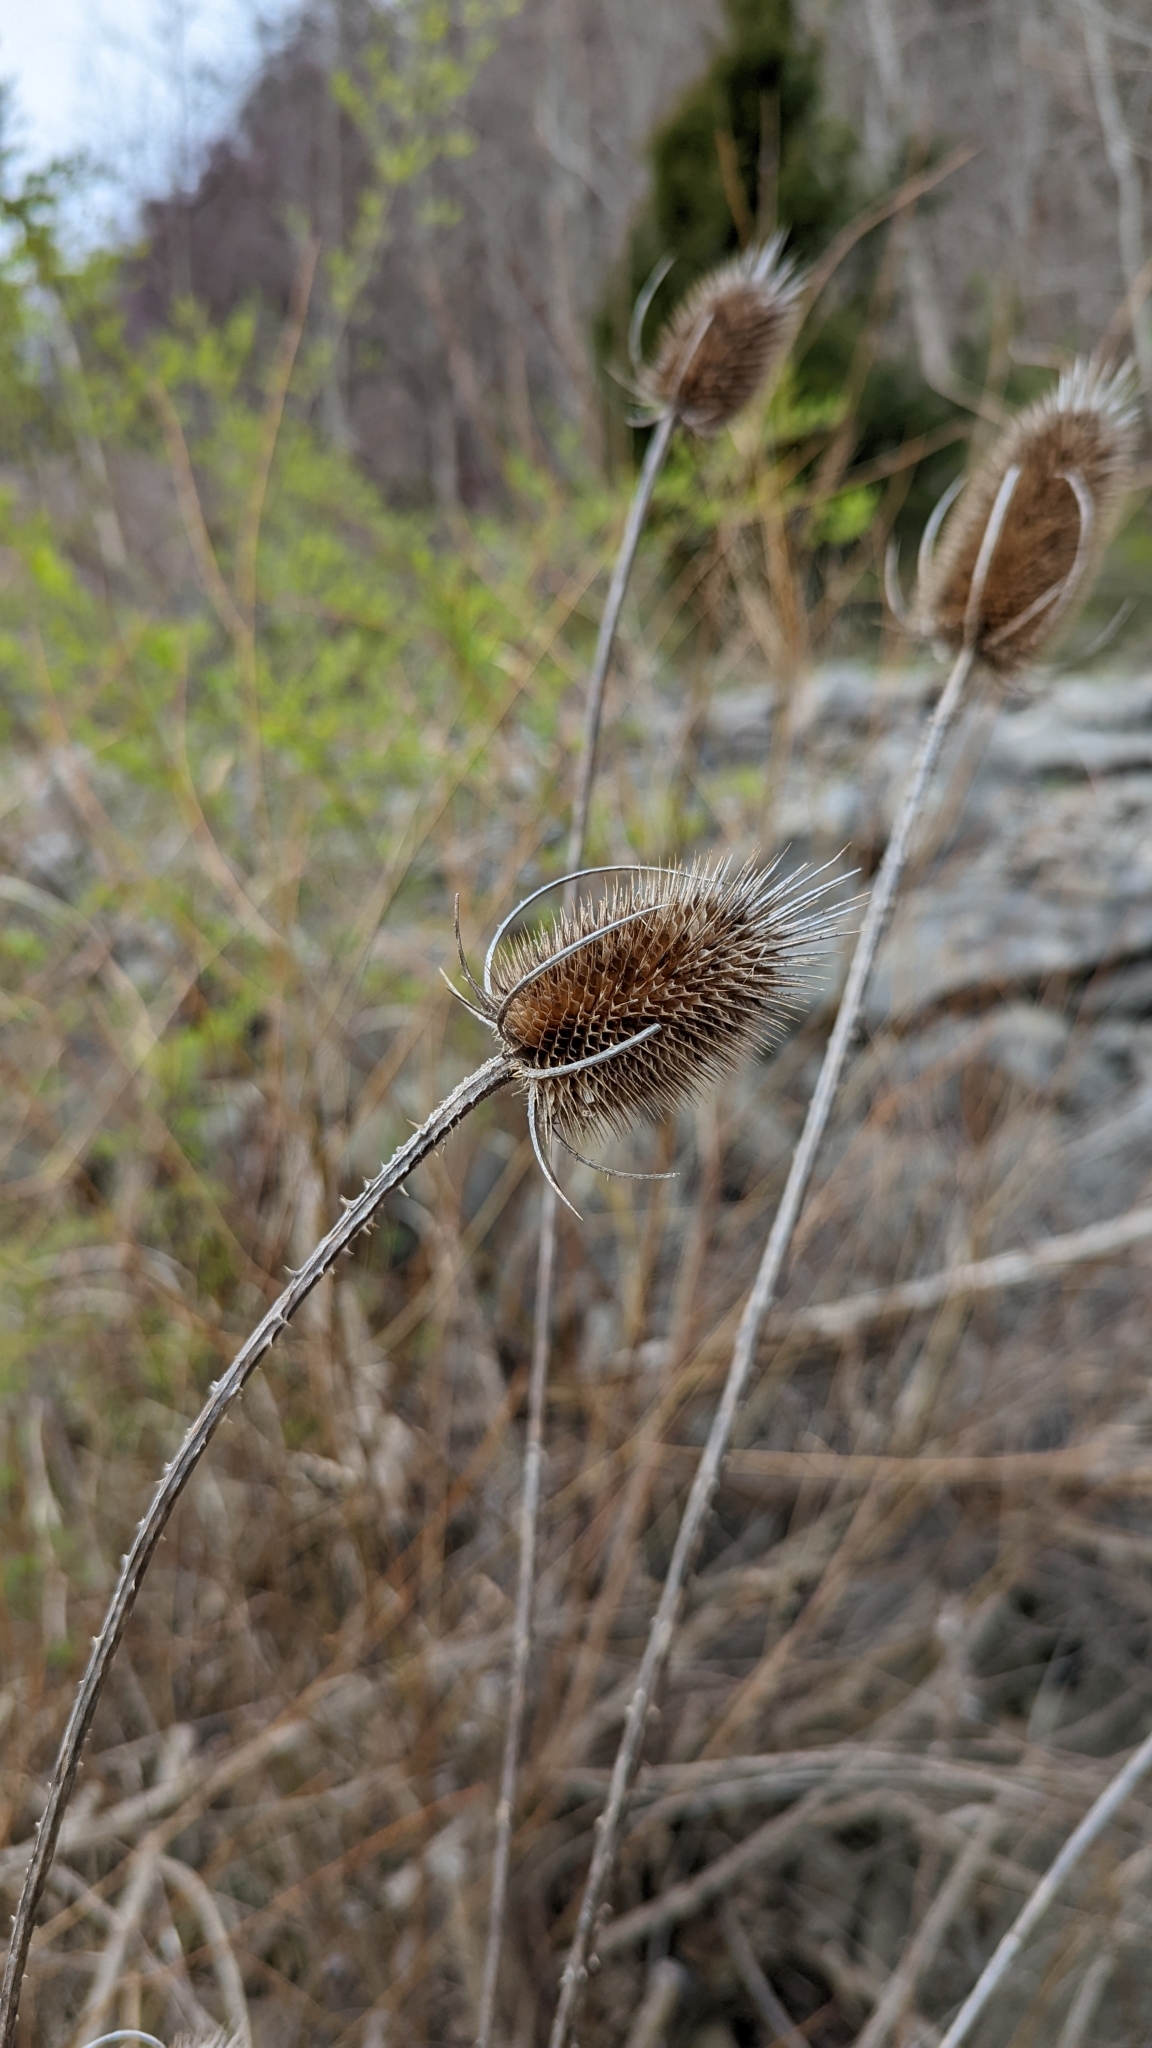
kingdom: Plantae
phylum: Tracheophyta
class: Magnoliopsida
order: Dipsacales
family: Caprifoliaceae
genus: Dipsacus
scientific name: Dipsacus fullonum
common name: Teasel
